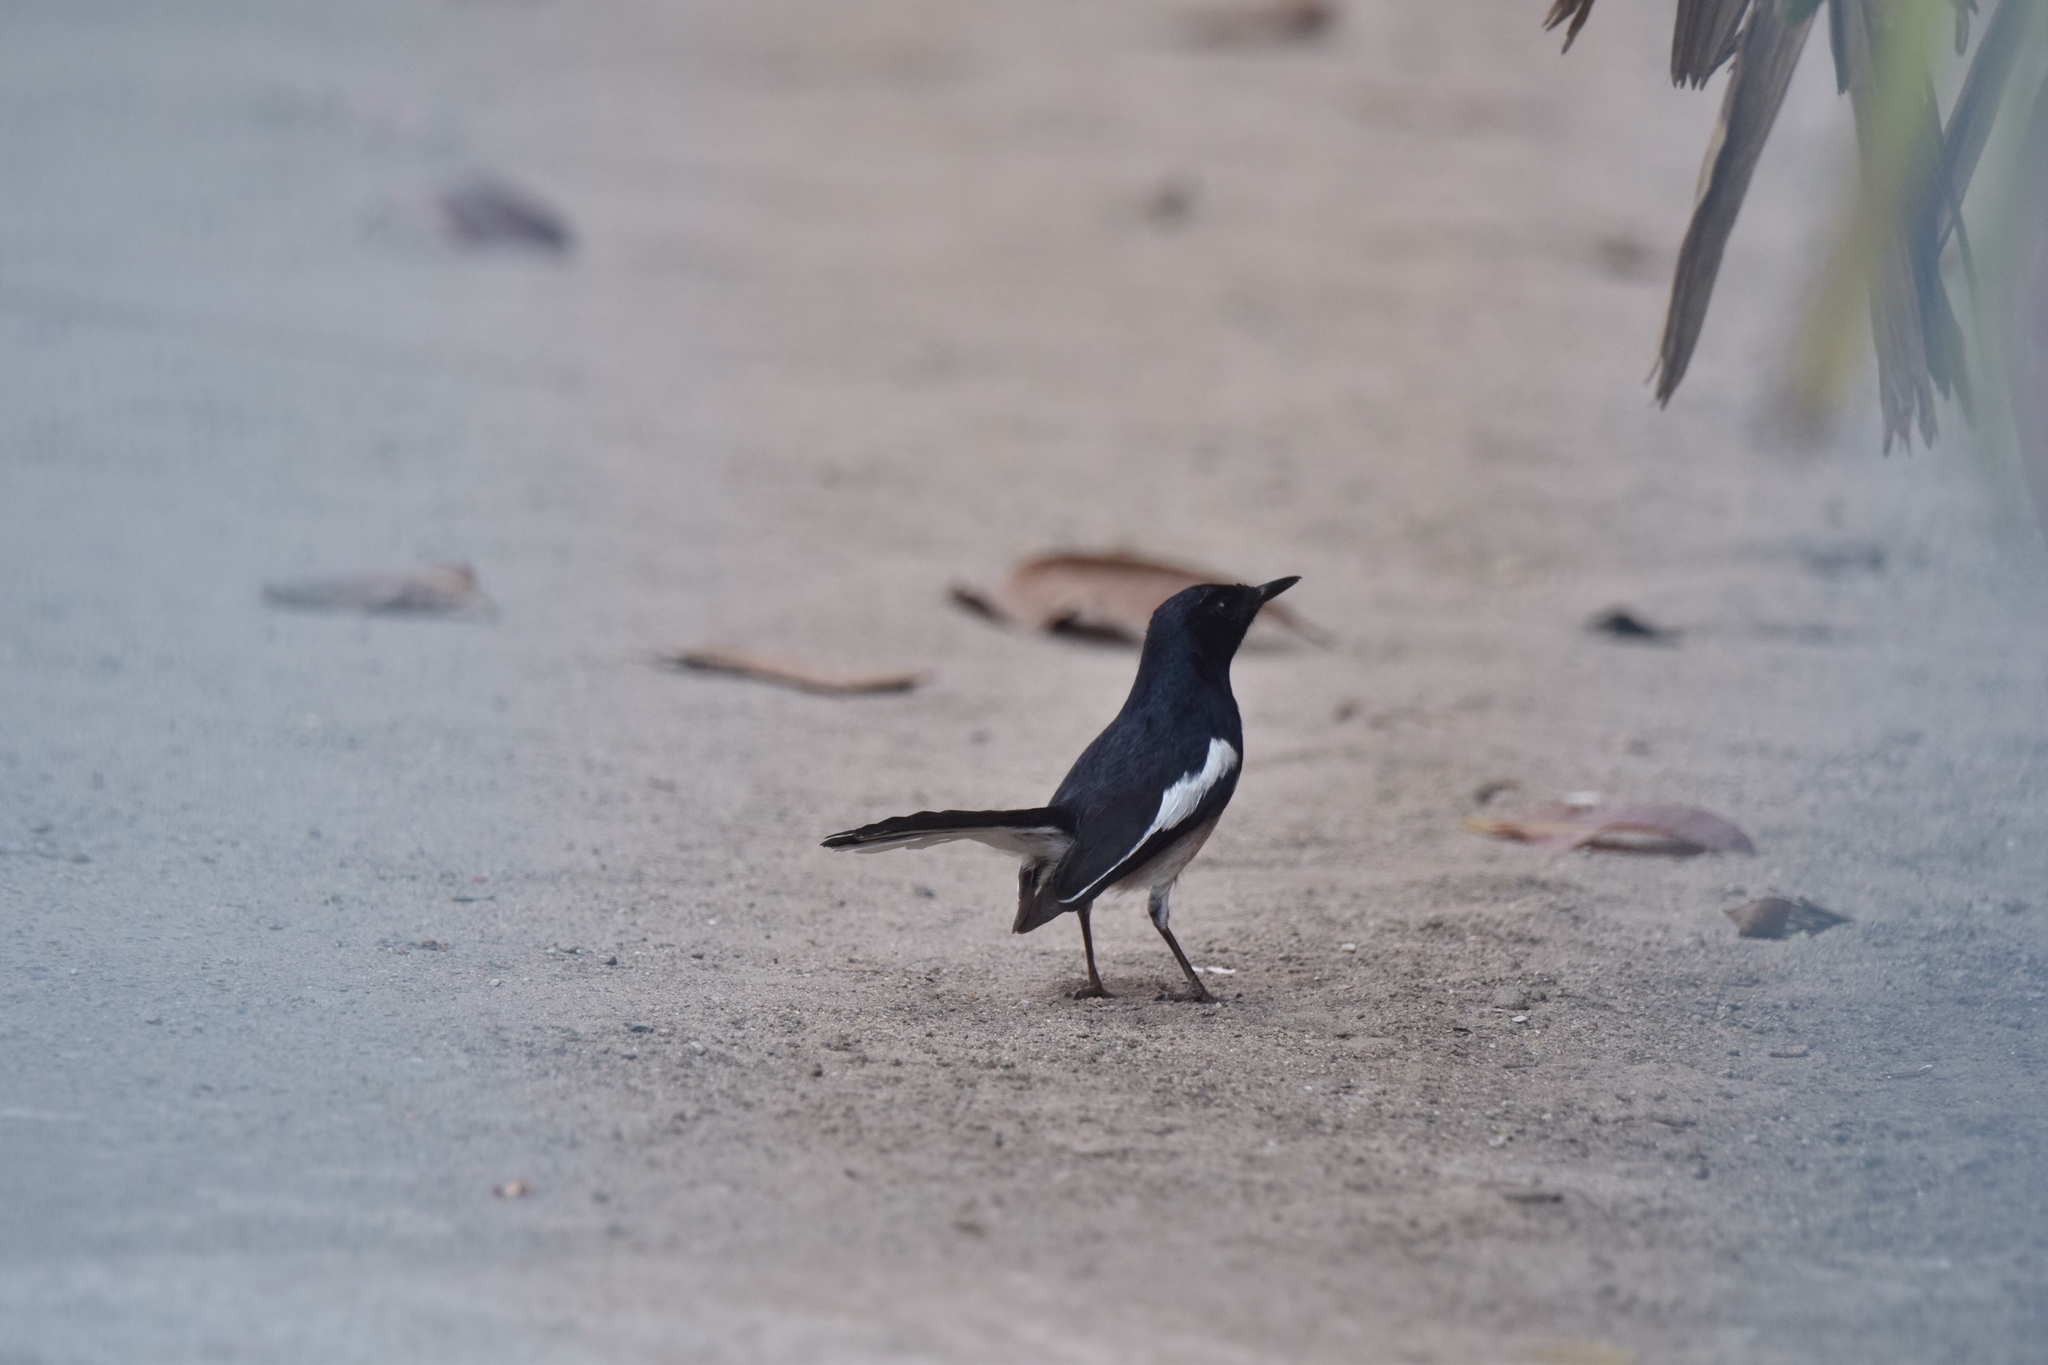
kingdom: Animalia
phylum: Chordata
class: Aves
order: Passeriformes
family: Muscicapidae
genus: Copsychus
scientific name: Copsychus saularis
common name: Oriental magpie-robin
